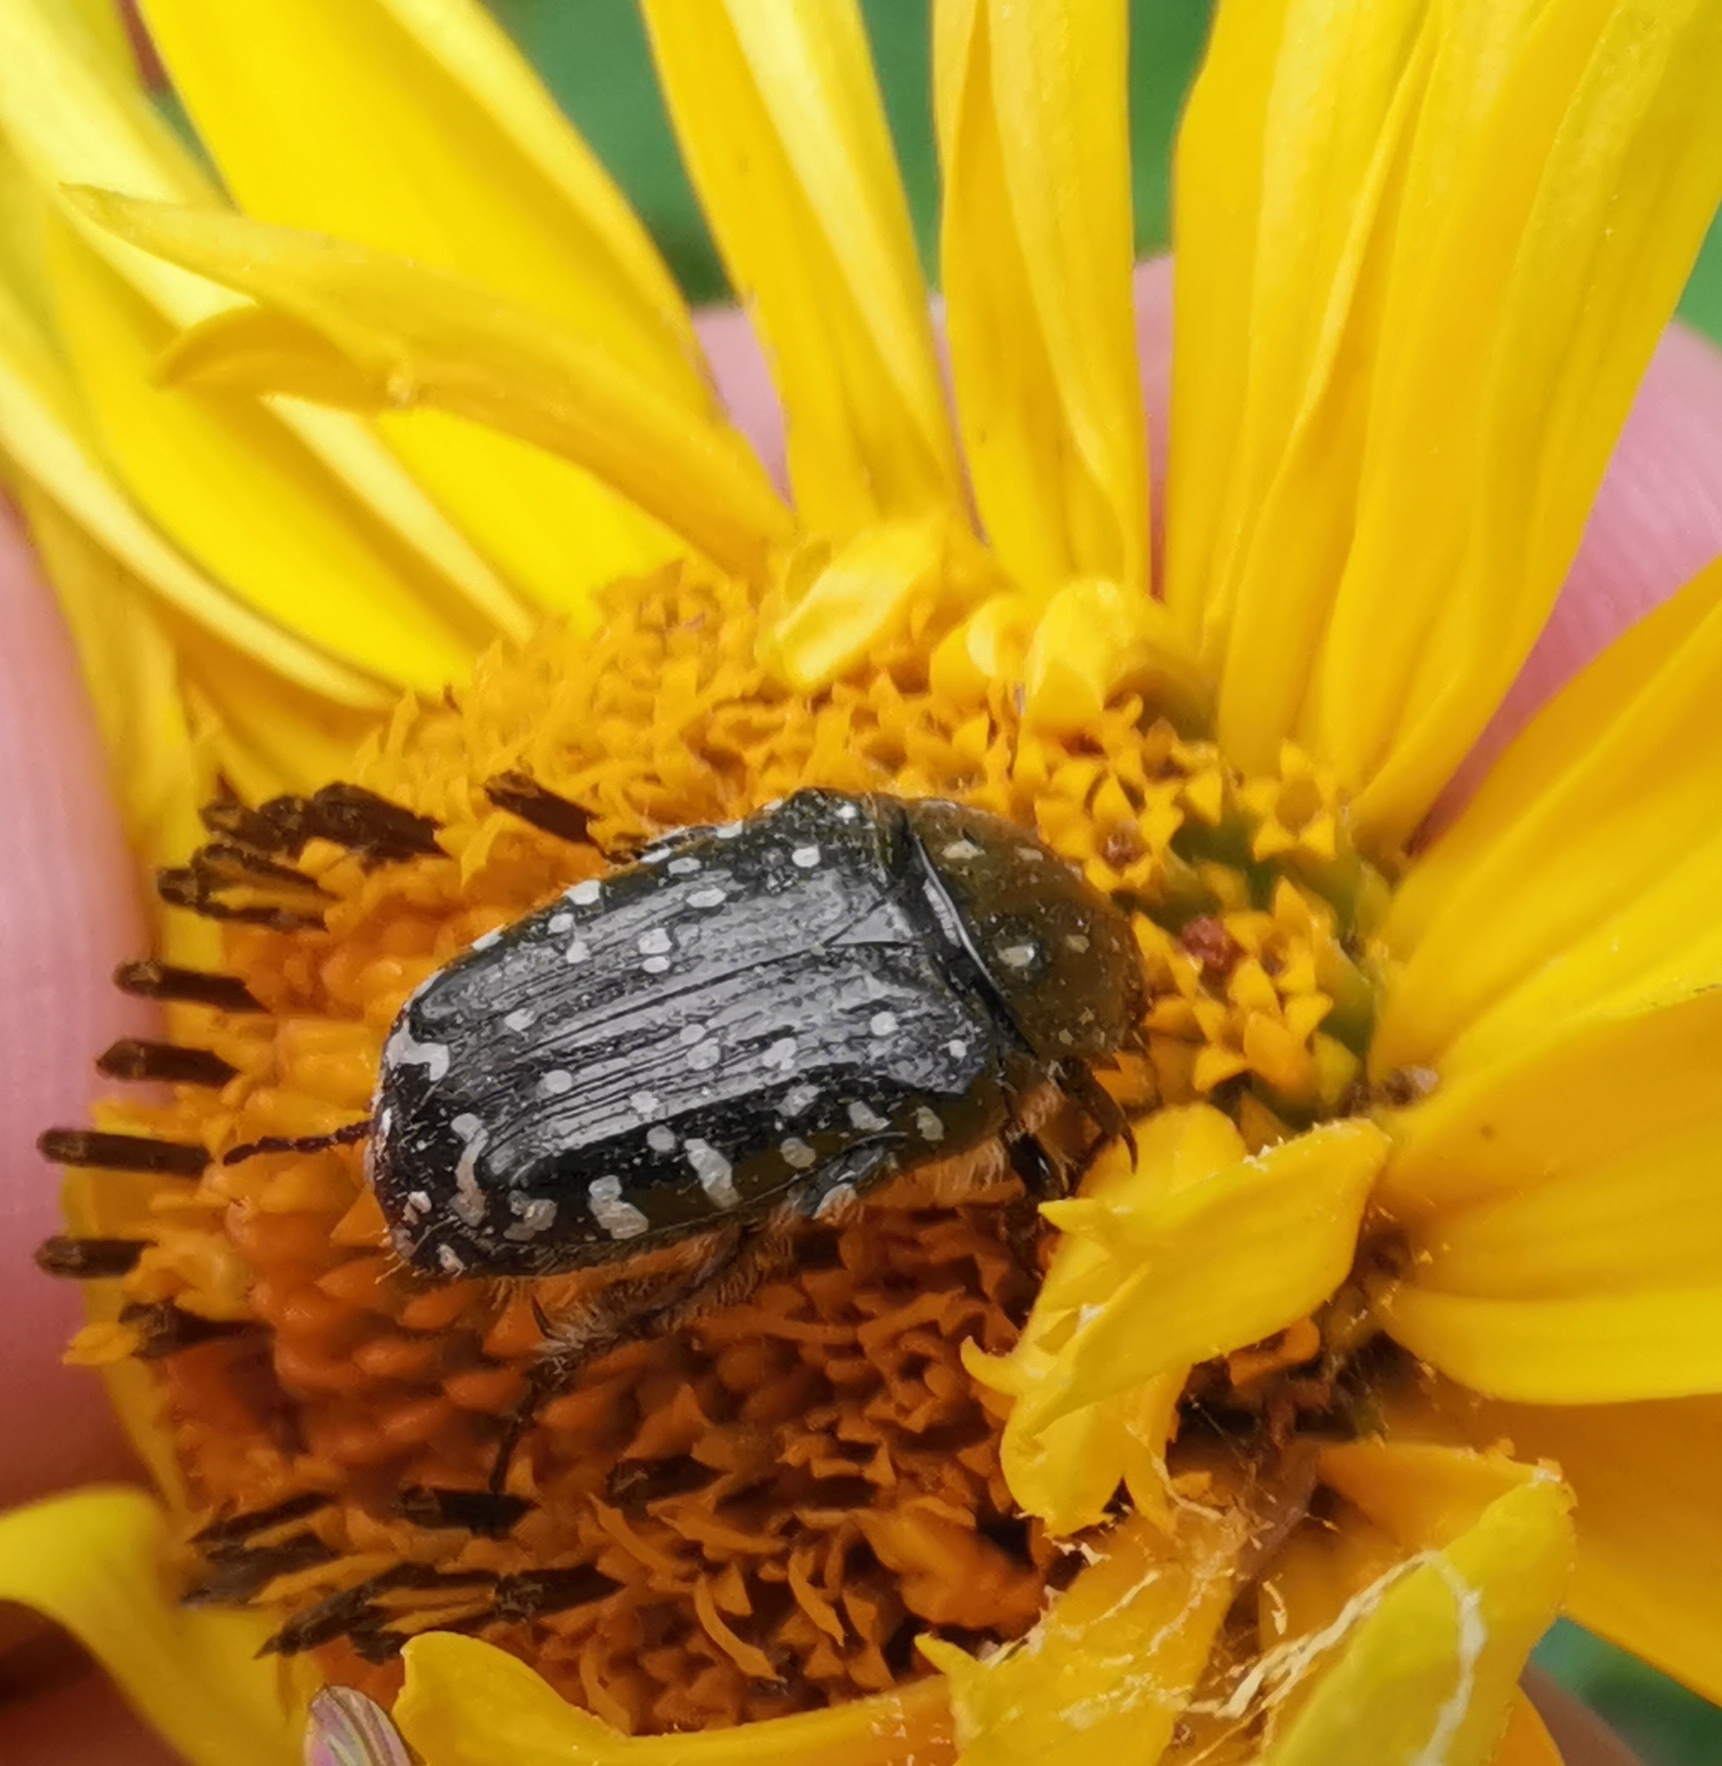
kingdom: Animalia
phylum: Arthropoda
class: Insecta
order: Coleoptera
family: Scarabaeidae
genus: Oxythyrea
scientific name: Oxythyrea funesta
